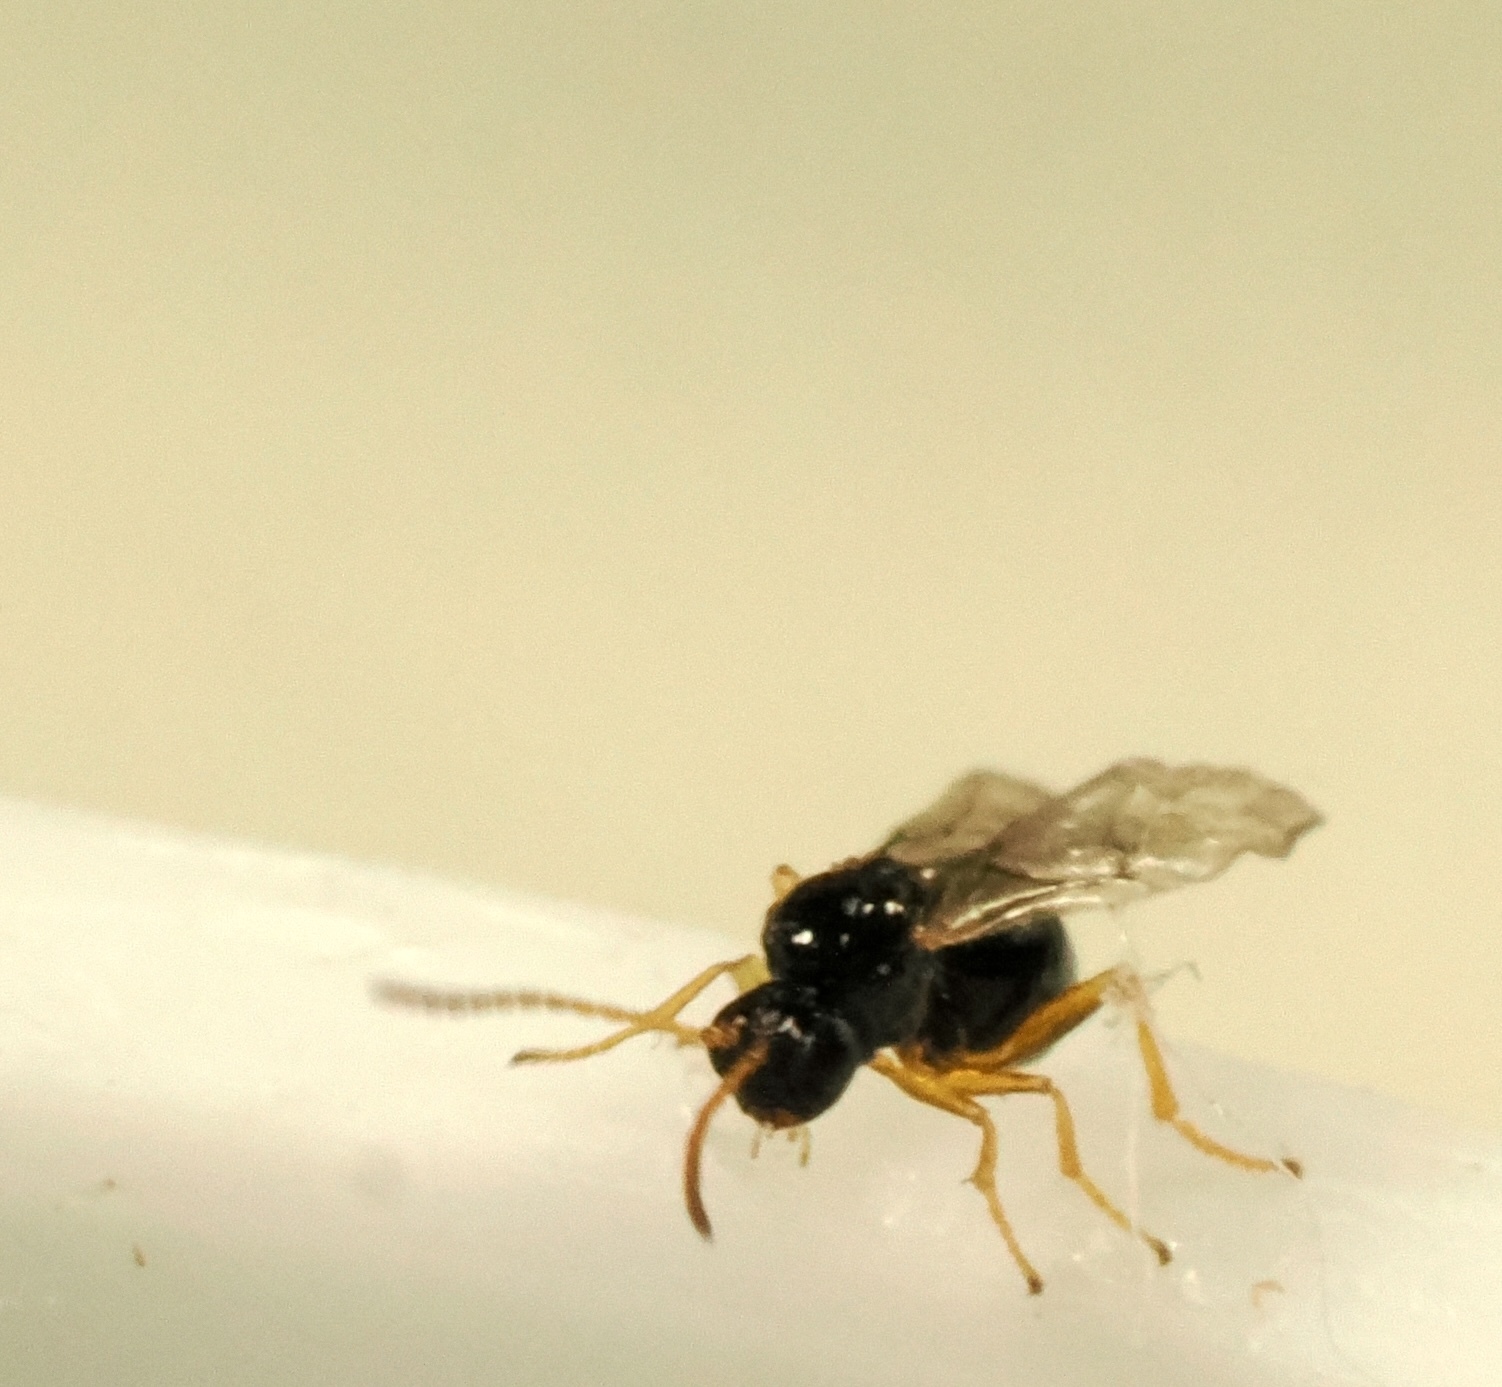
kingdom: Animalia
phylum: Arthropoda
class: Insecta
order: Hymenoptera
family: Cynipidae
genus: Dryocosmus
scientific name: Dryocosmus
